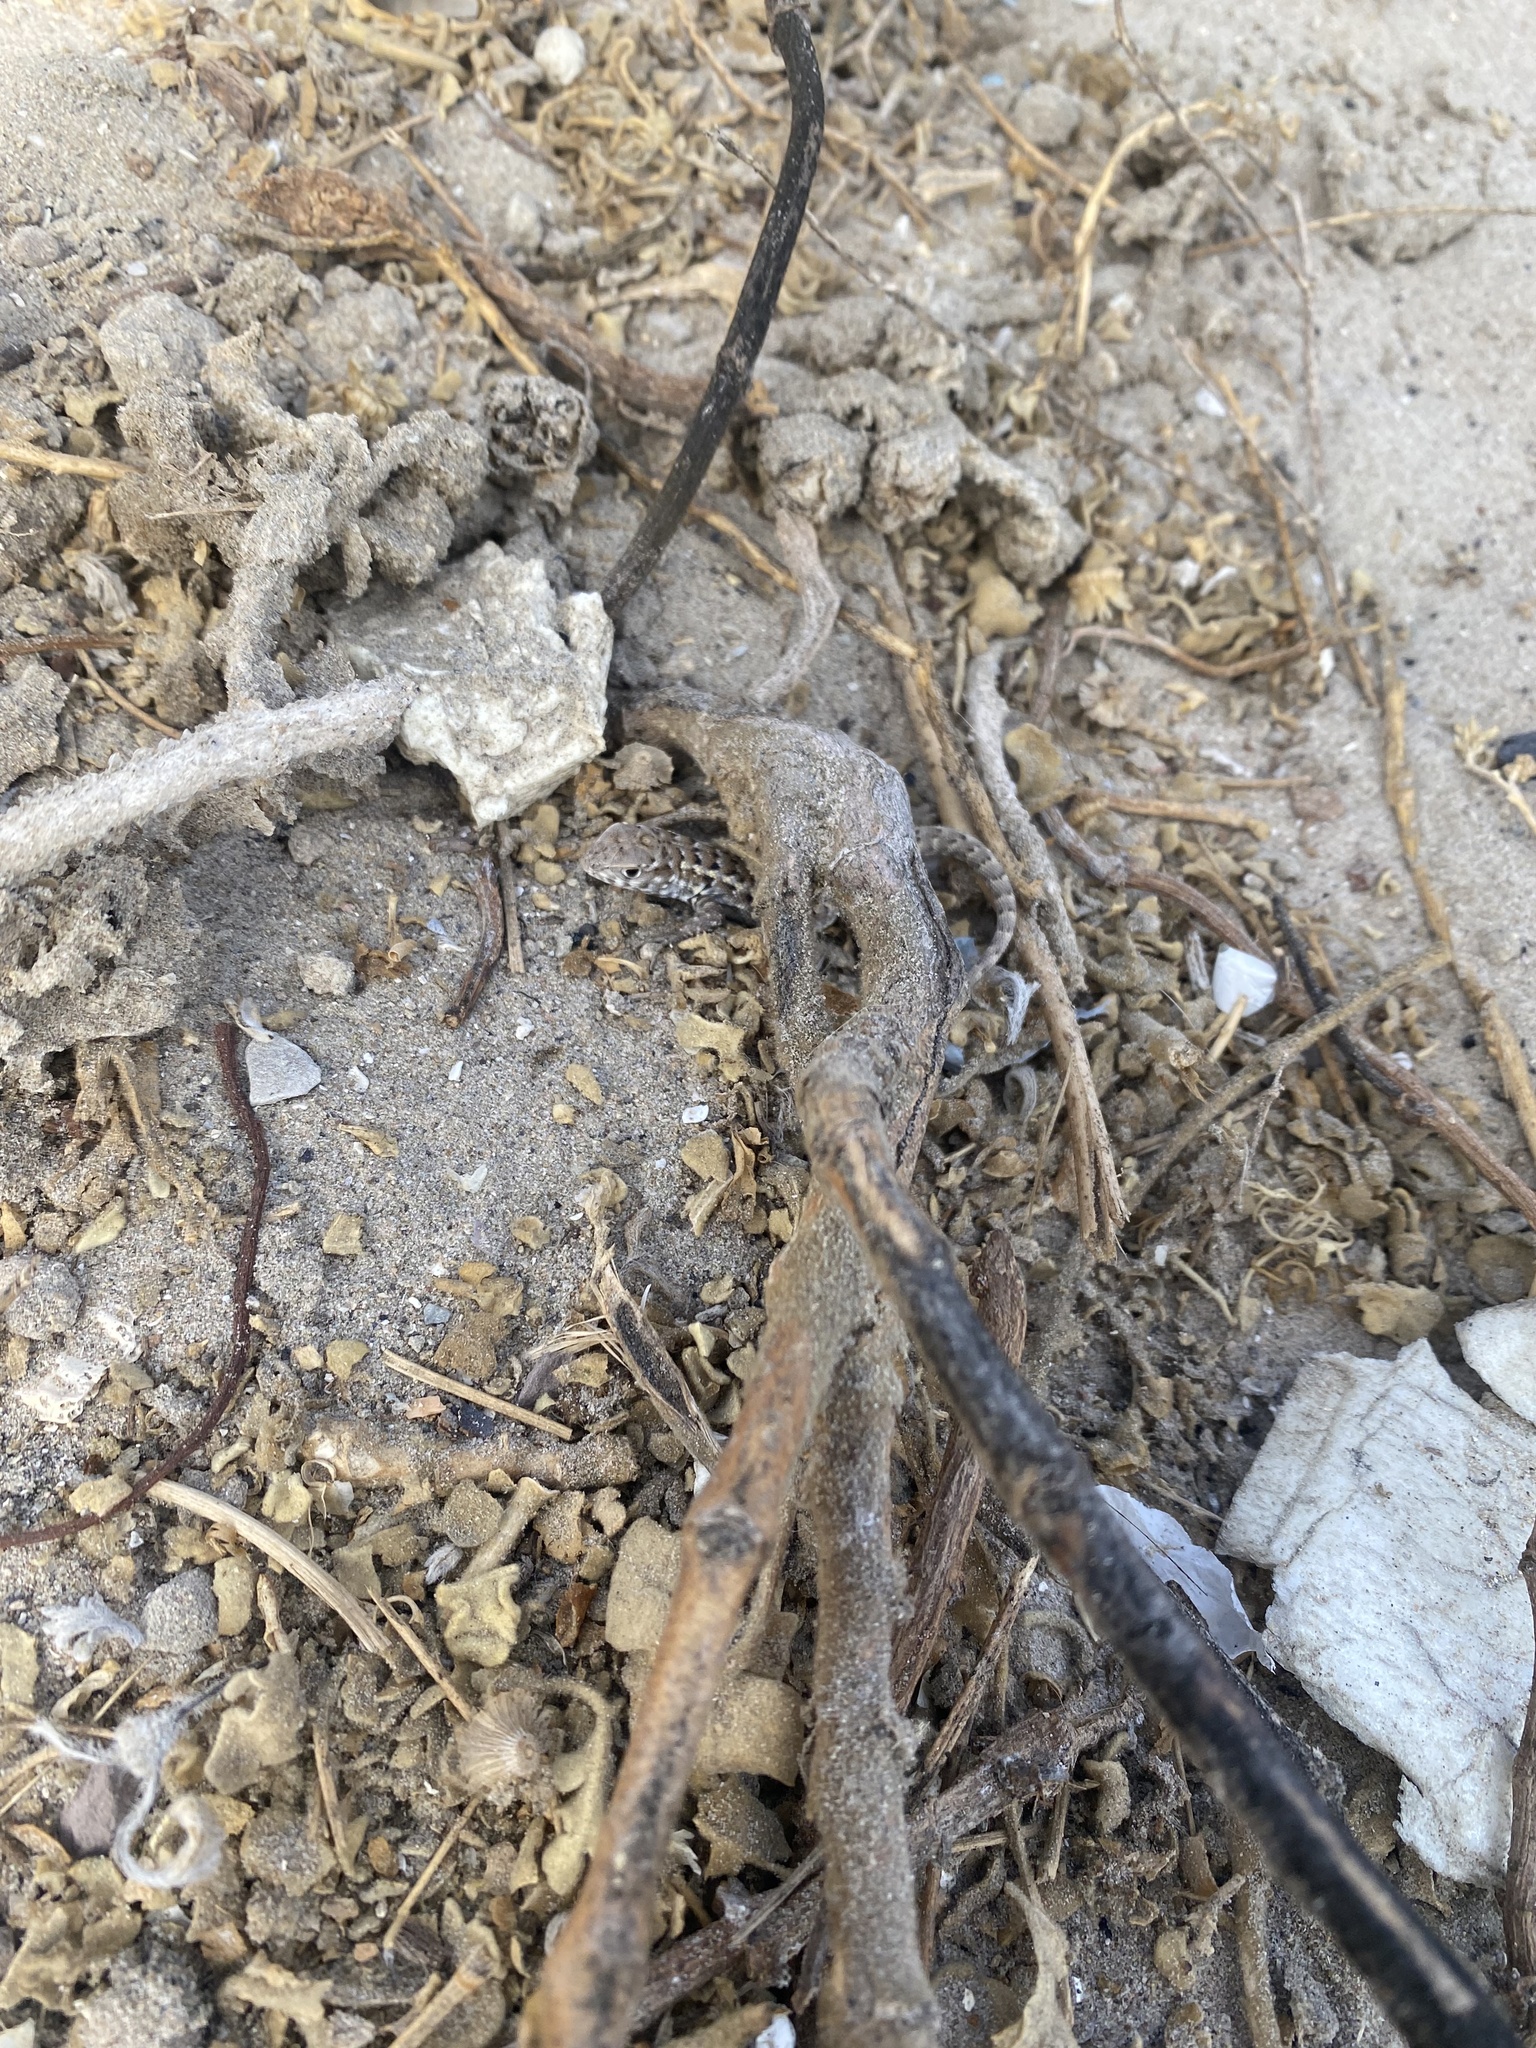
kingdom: Animalia
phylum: Chordata
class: Squamata
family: Liolaemidae
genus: Liolaemus
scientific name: Liolaemus zapallarensis
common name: Zapallaren tree iguana
